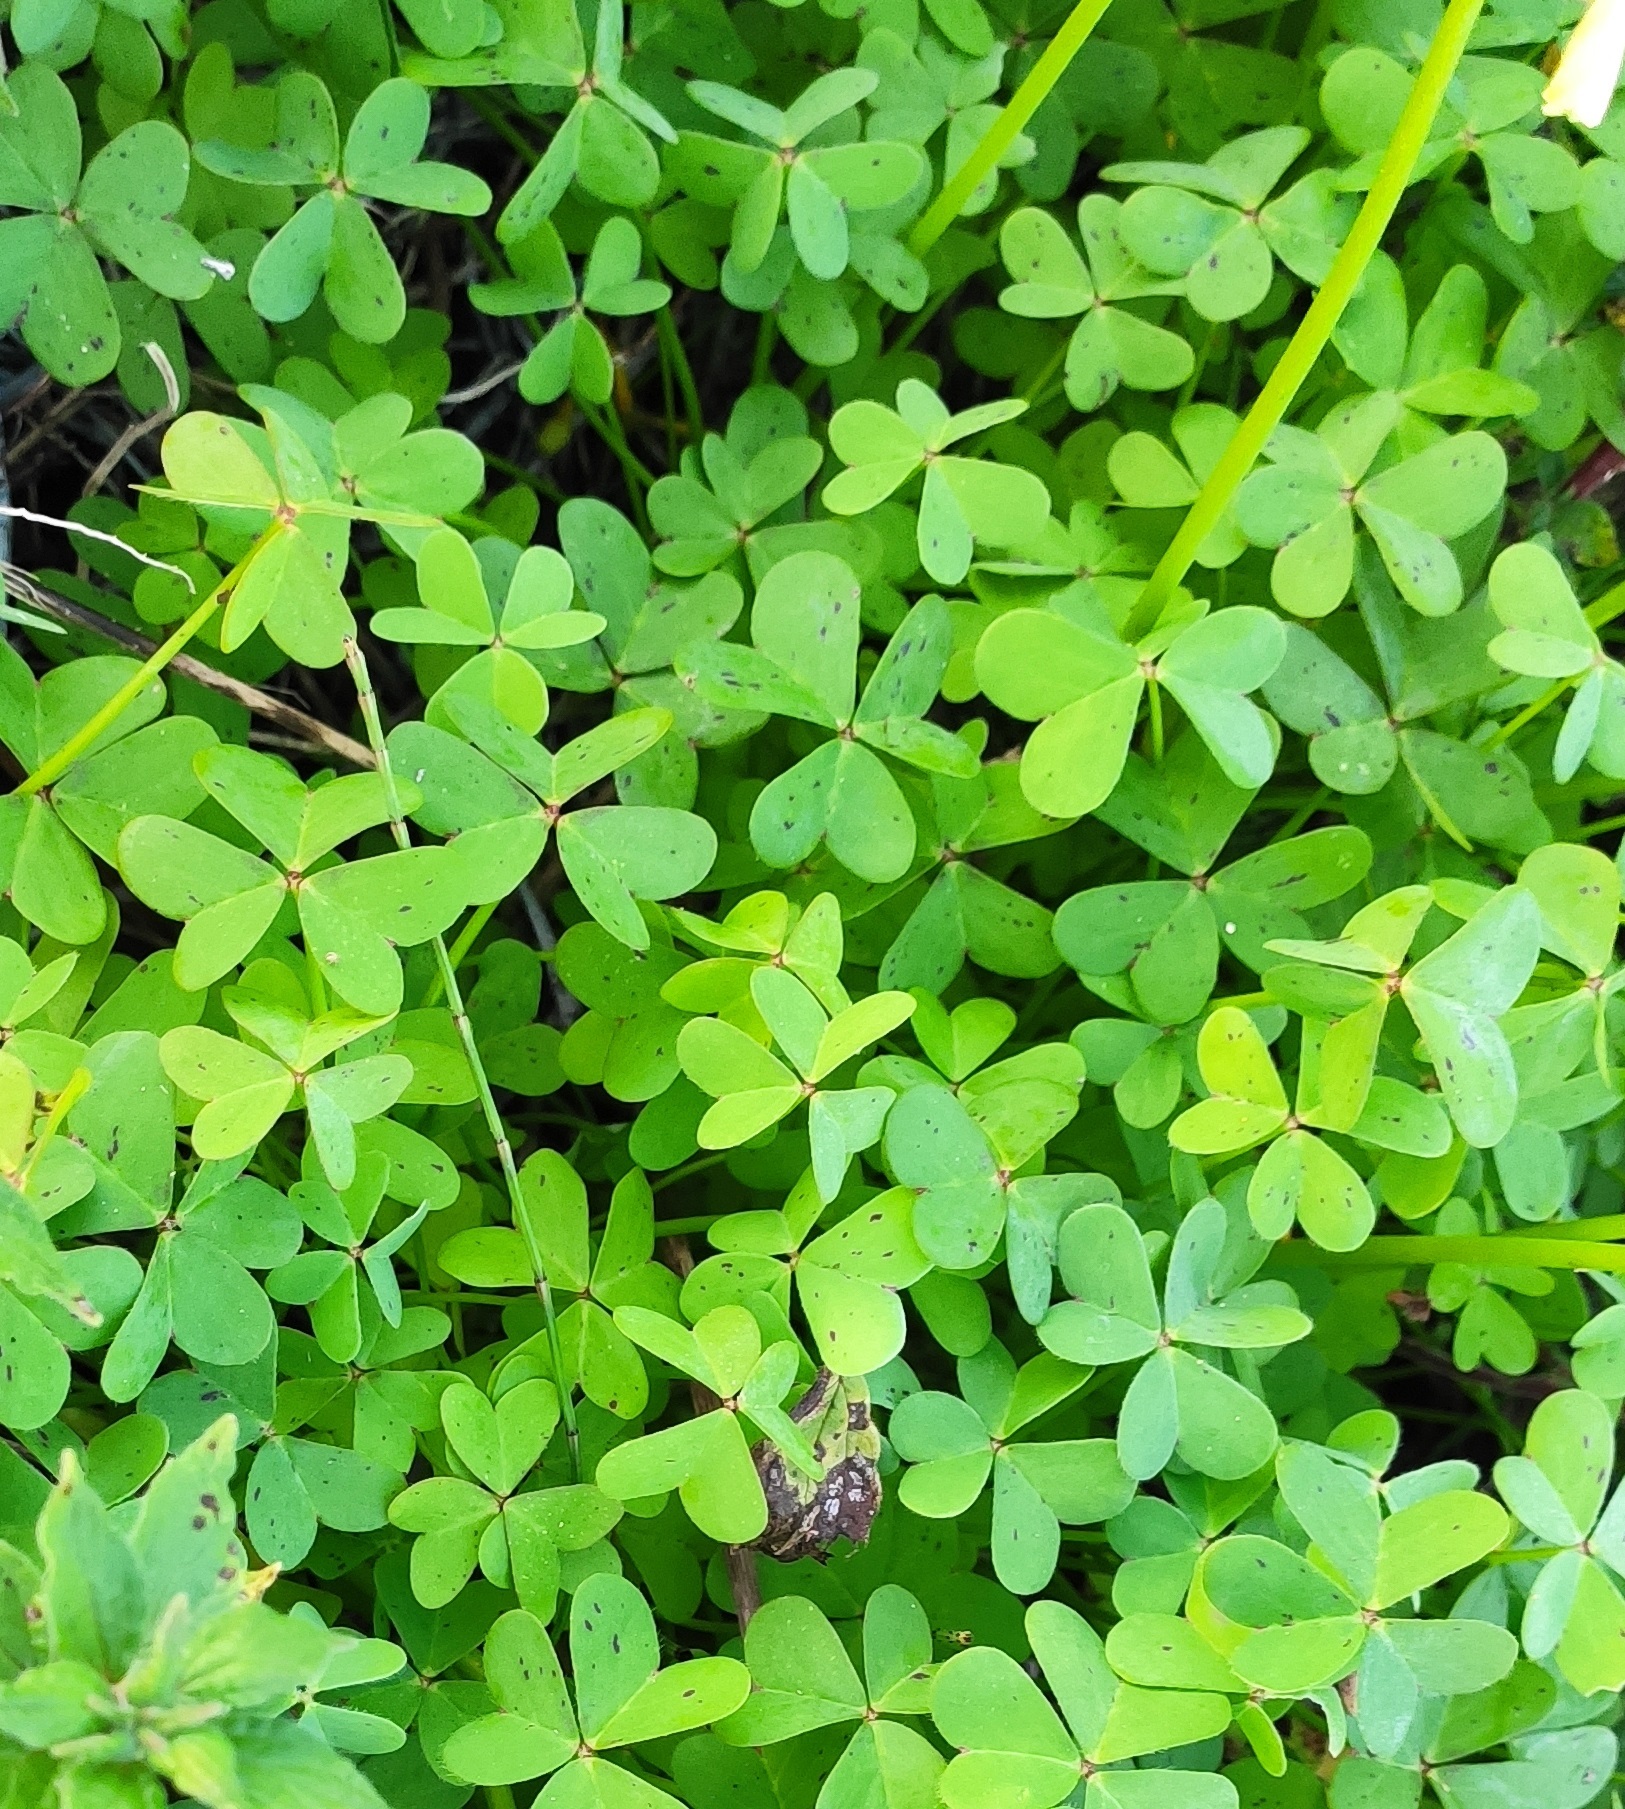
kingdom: Plantae
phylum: Tracheophyta
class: Magnoliopsida
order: Oxalidales
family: Oxalidaceae
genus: Oxalis
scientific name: Oxalis pes-caprae
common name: Bermuda-buttercup
